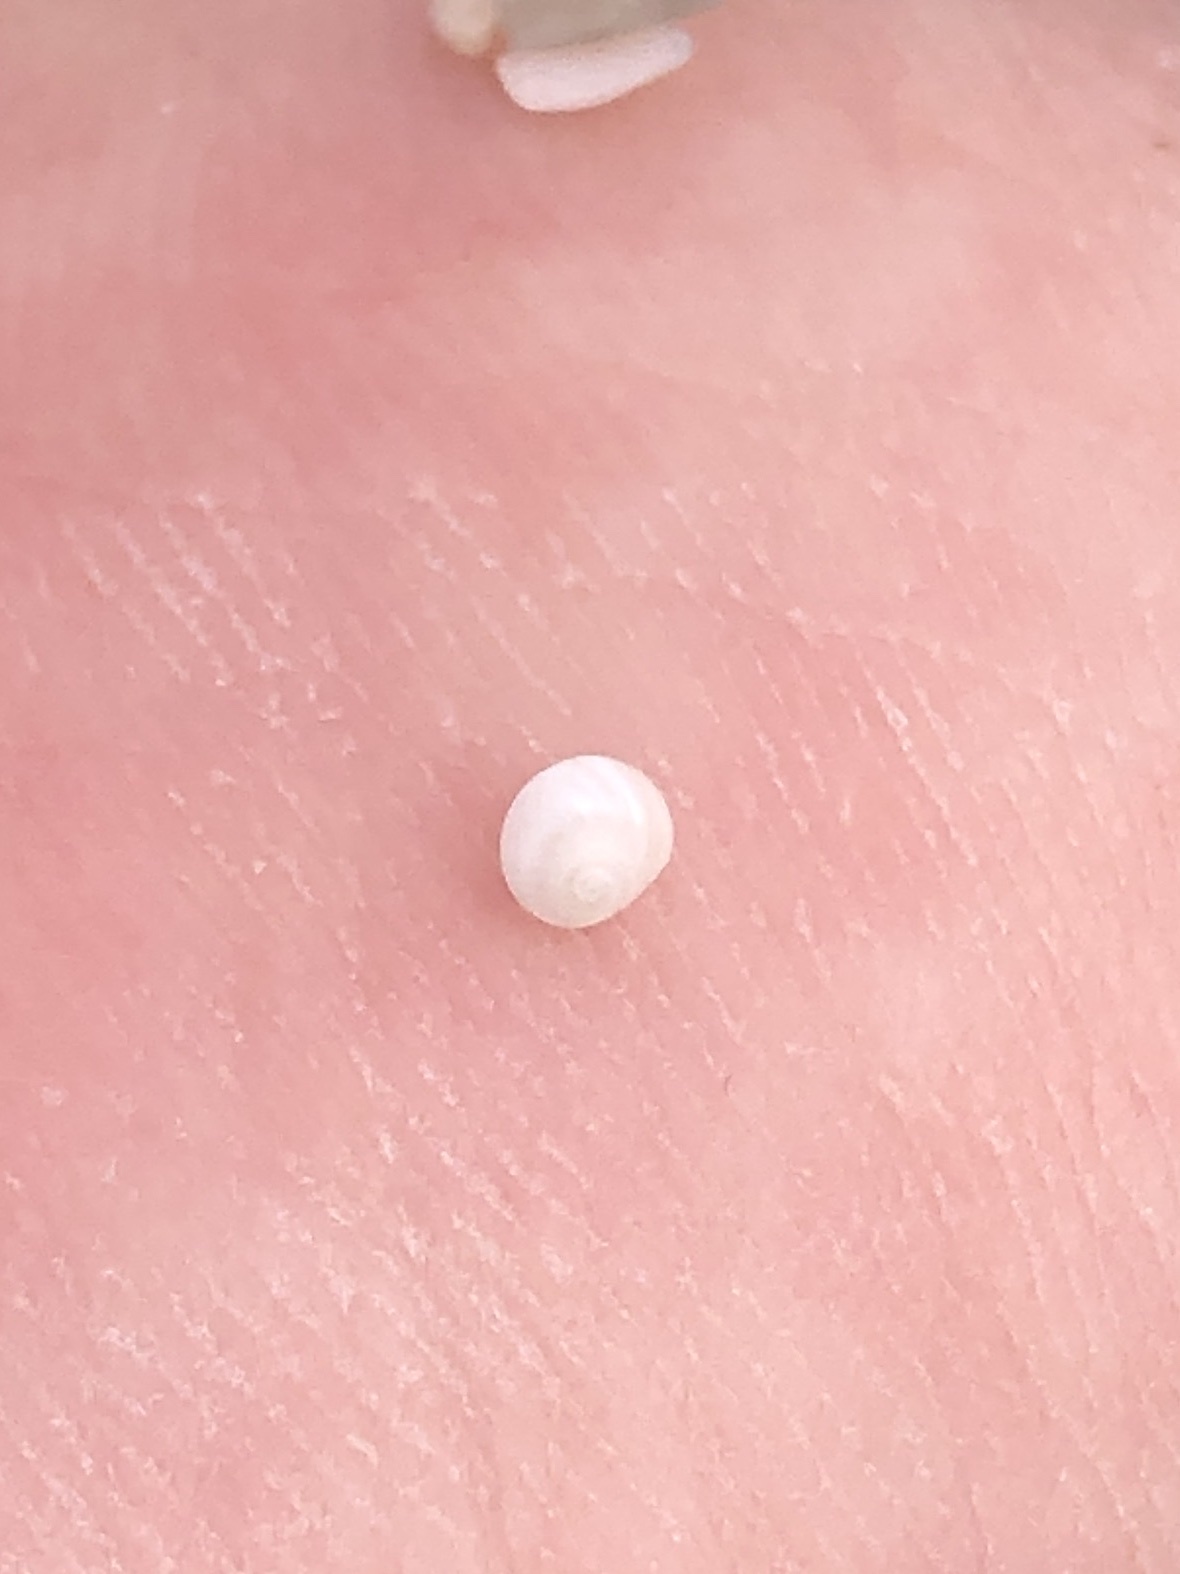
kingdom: Animalia
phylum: Mollusca
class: Gastropoda
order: Littorinimorpha
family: Naticidae
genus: Tectonatica
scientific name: Tectonatica pusilla
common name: Miniature moonsnail
